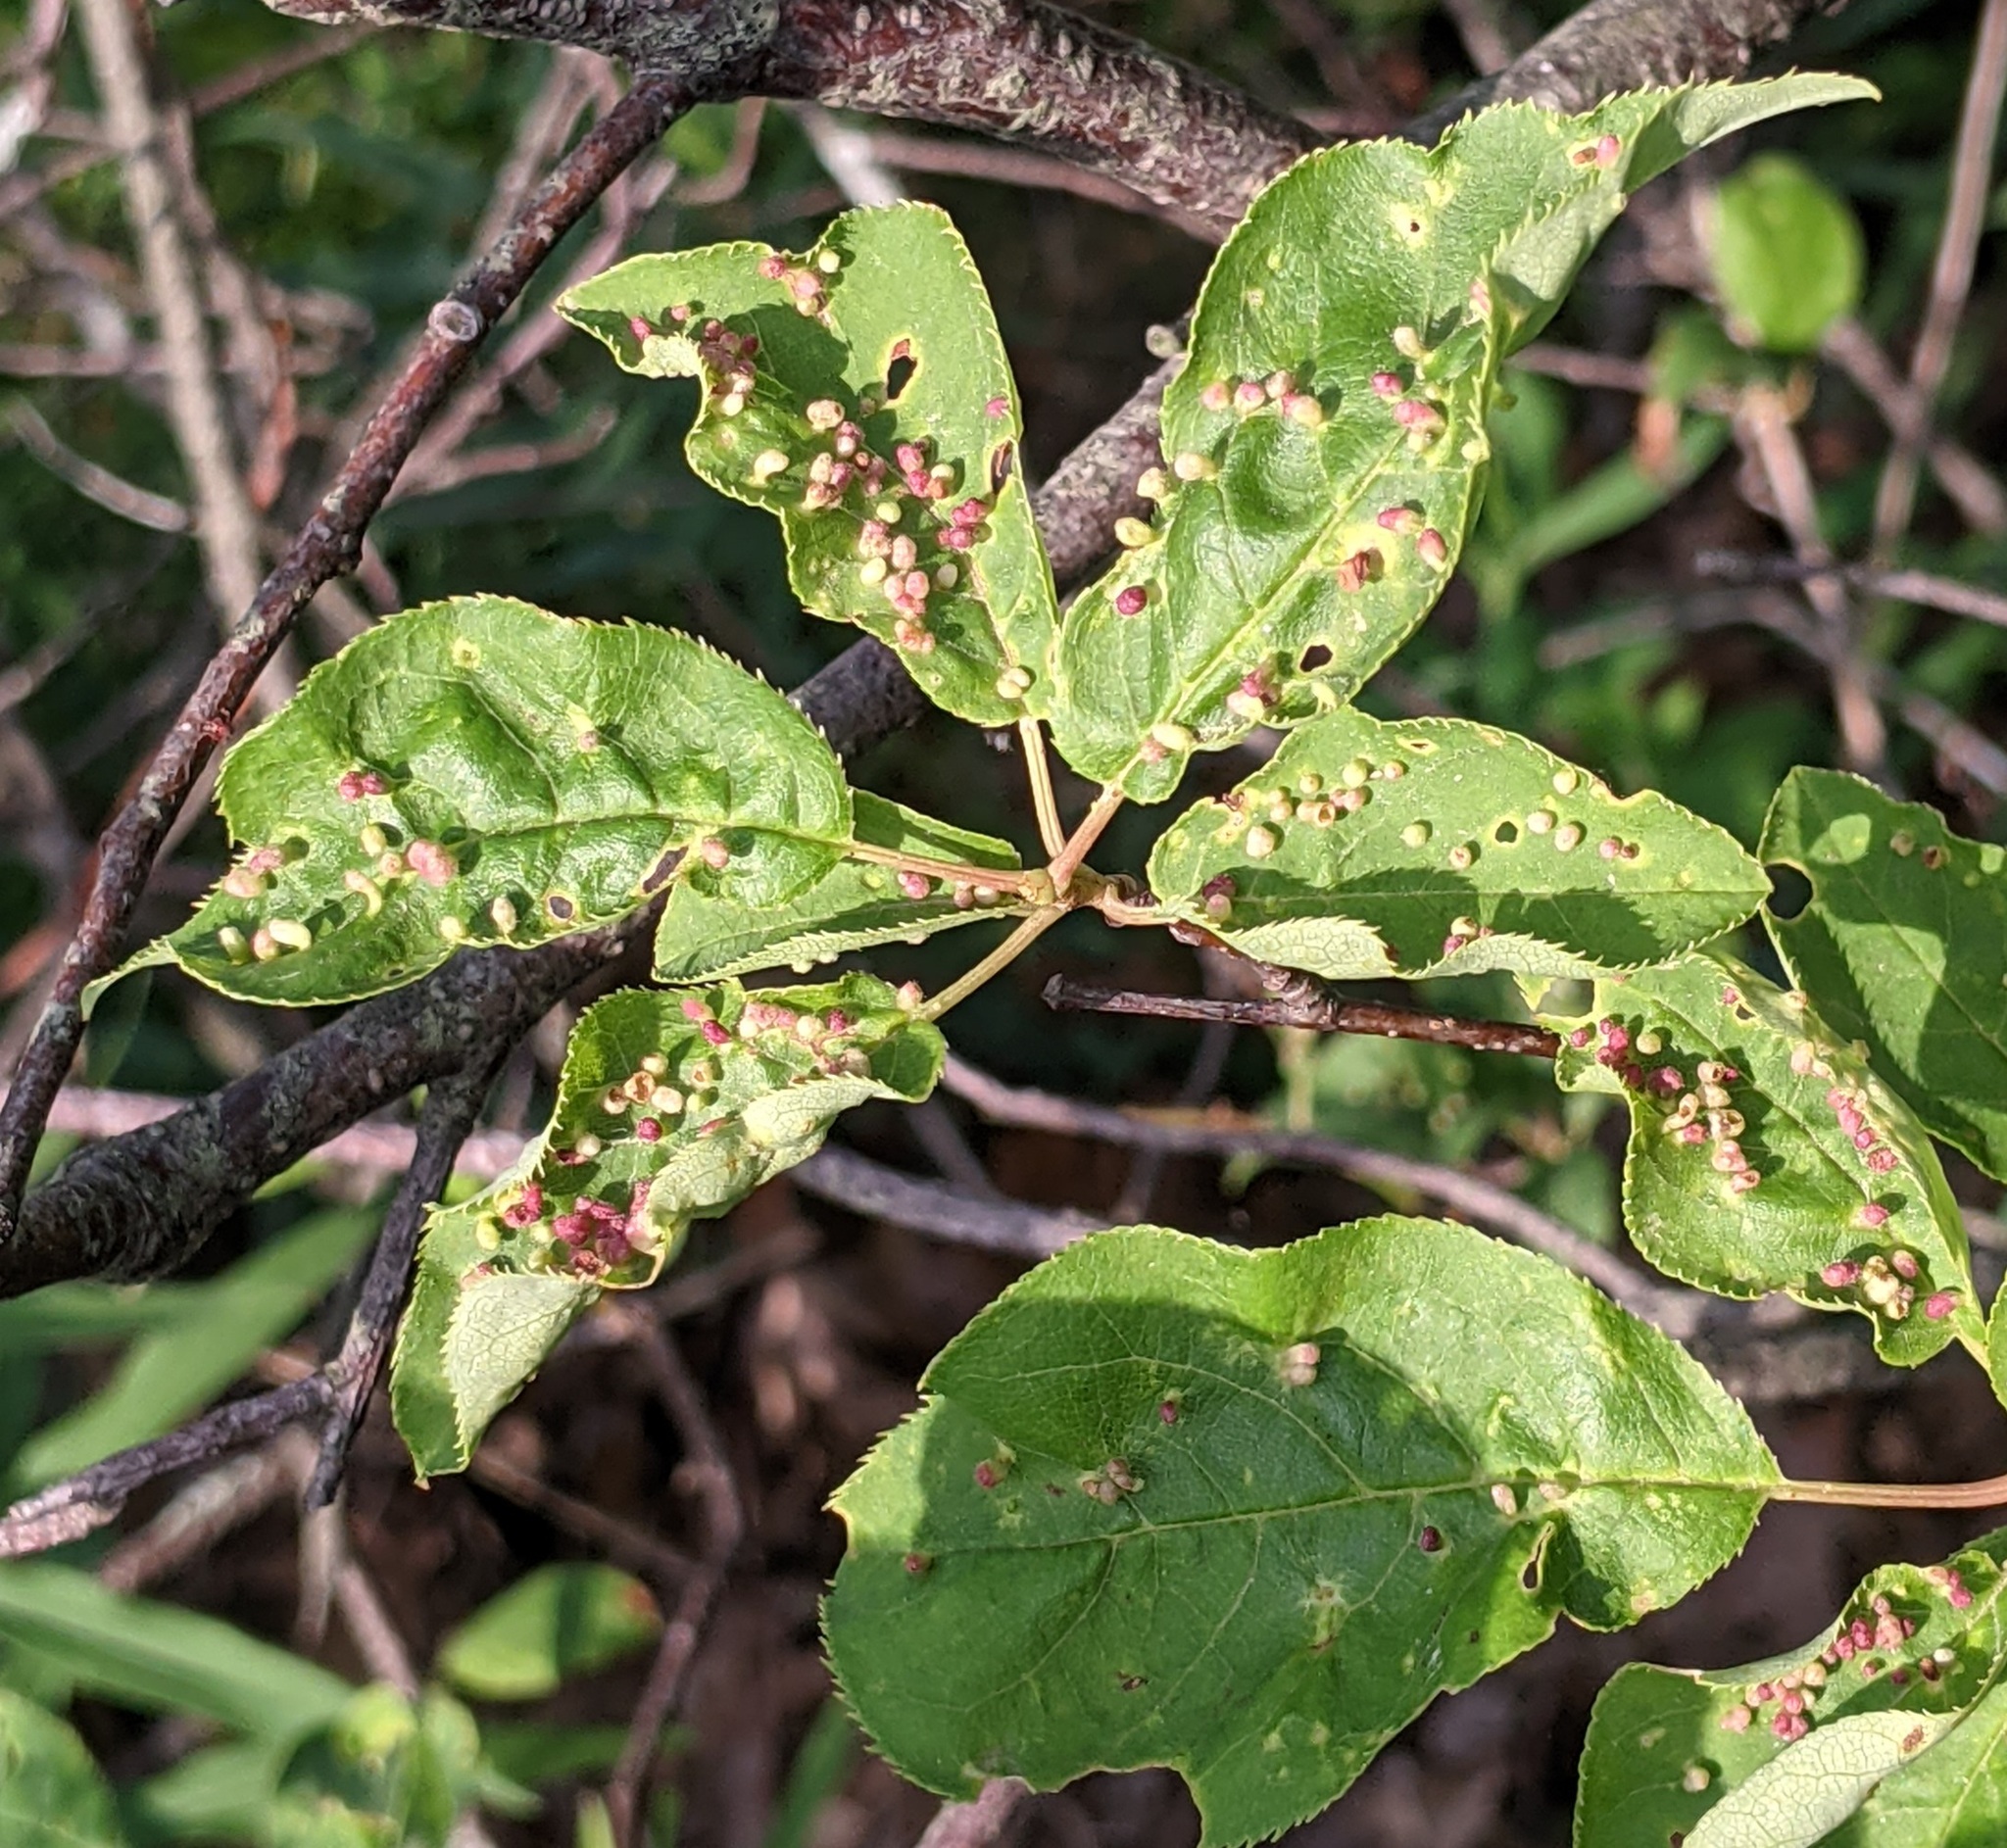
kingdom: Animalia
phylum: Arthropoda
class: Arachnida
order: Trombidiformes
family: Eriophyidae
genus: Eriophyes
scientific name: Eriophyes emarginatae
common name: Plum leaf gall mite
